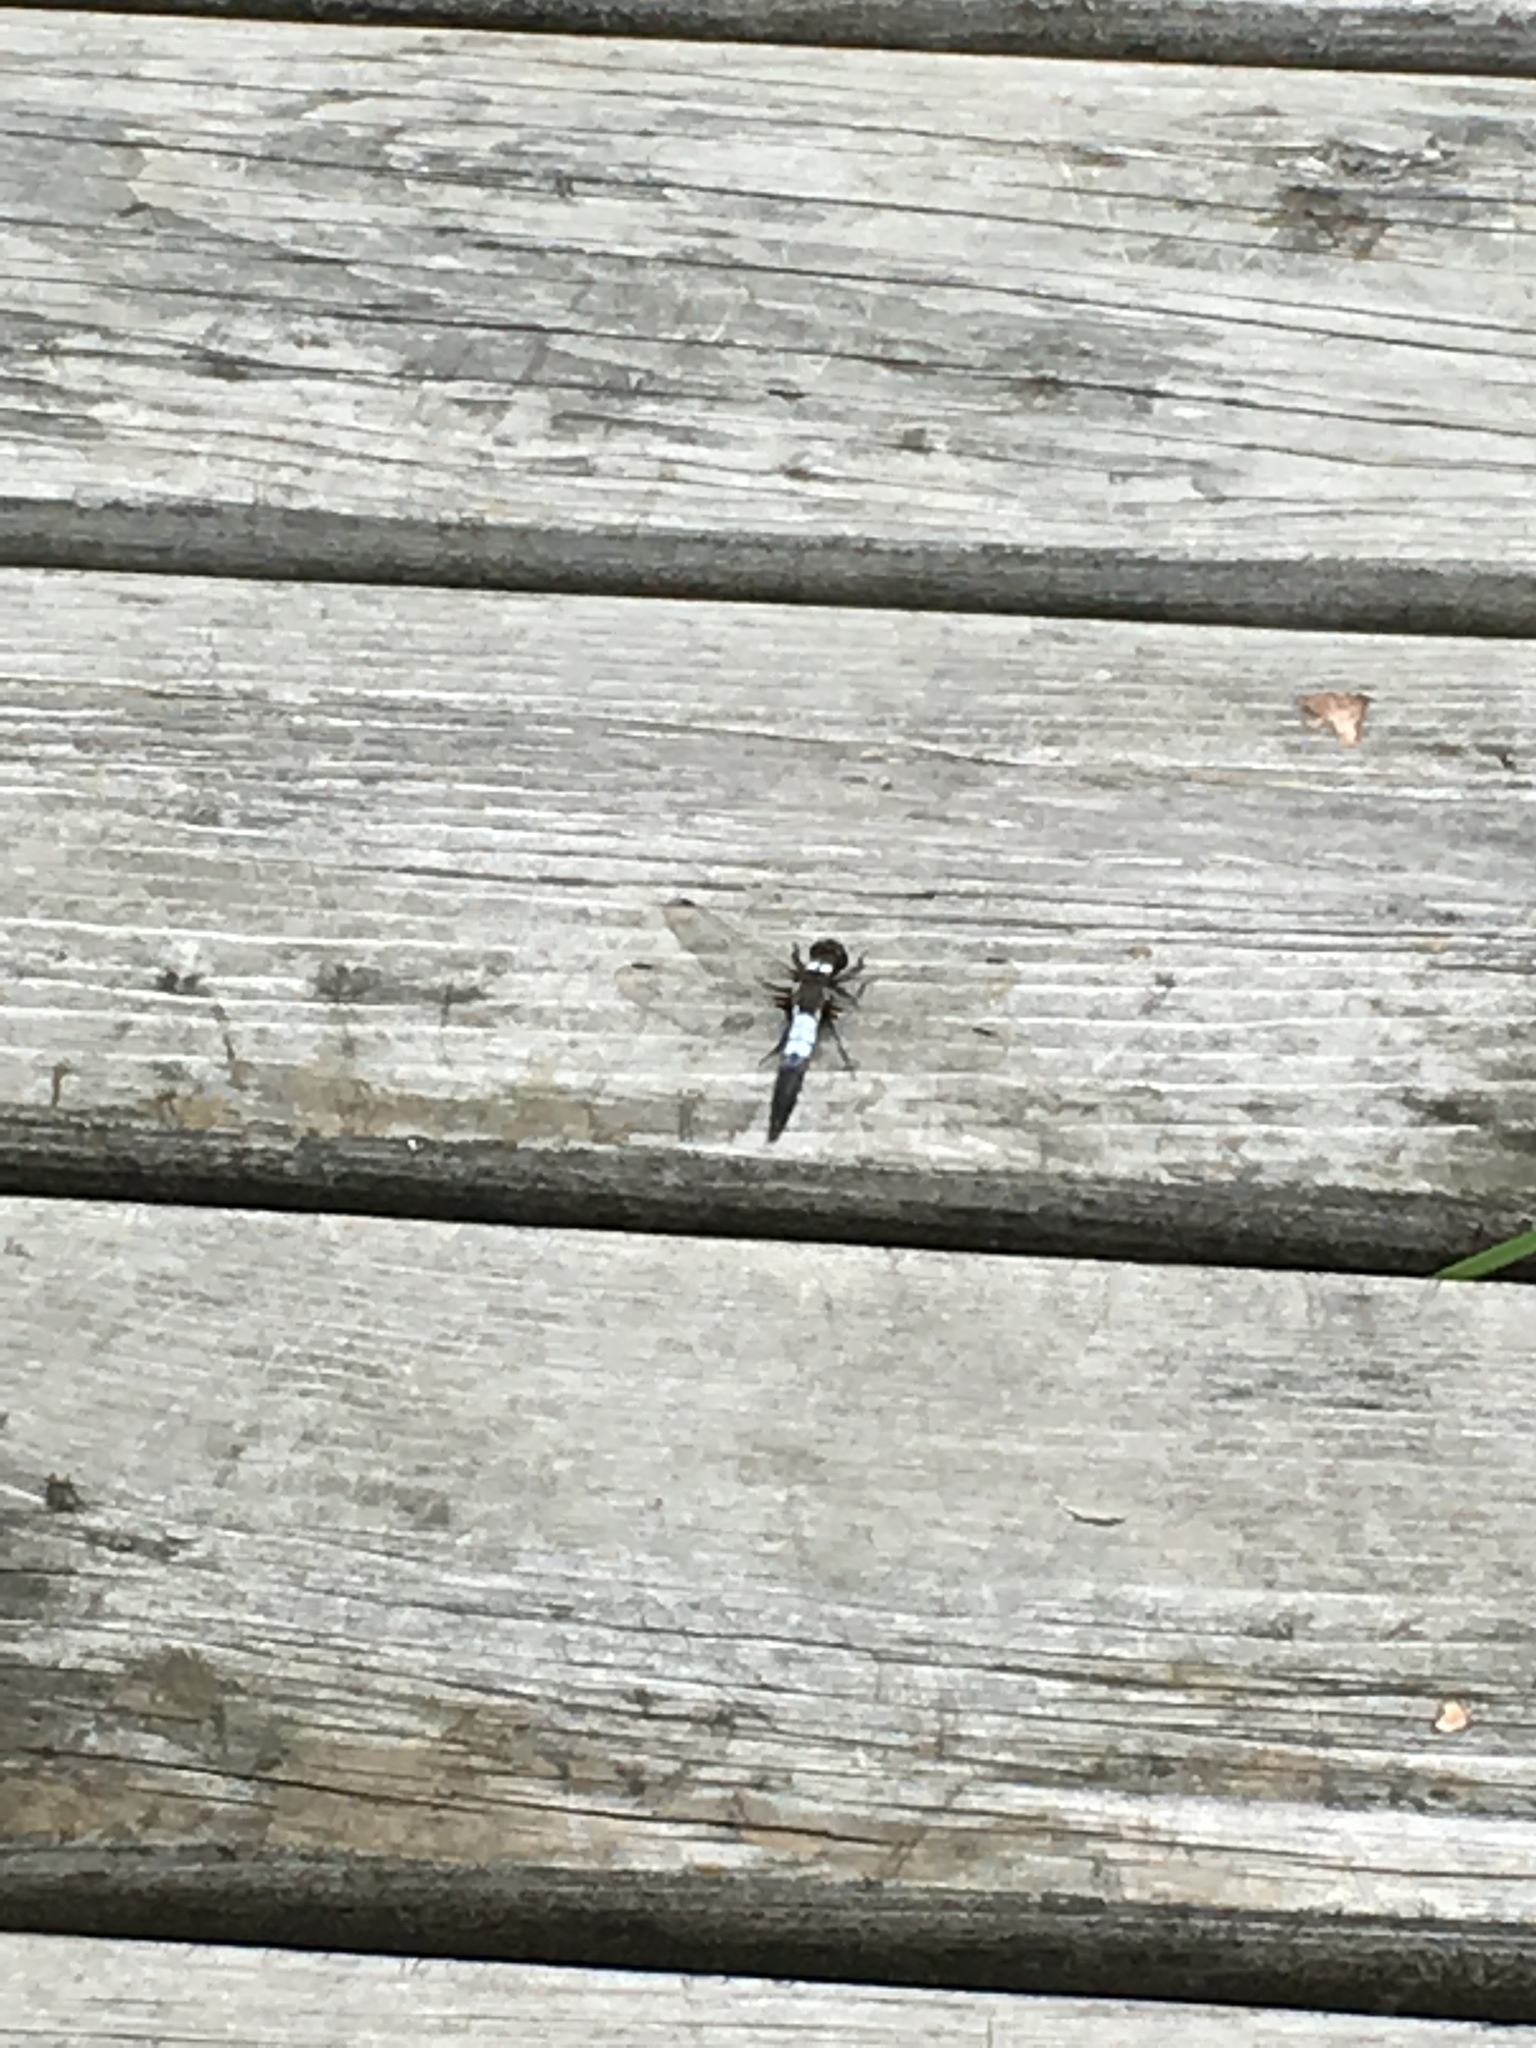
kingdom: Animalia
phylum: Arthropoda
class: Insecta
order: Odonata
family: Libellulidae
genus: Ladona
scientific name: Ladona julia
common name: Chalk-fronted corporal
